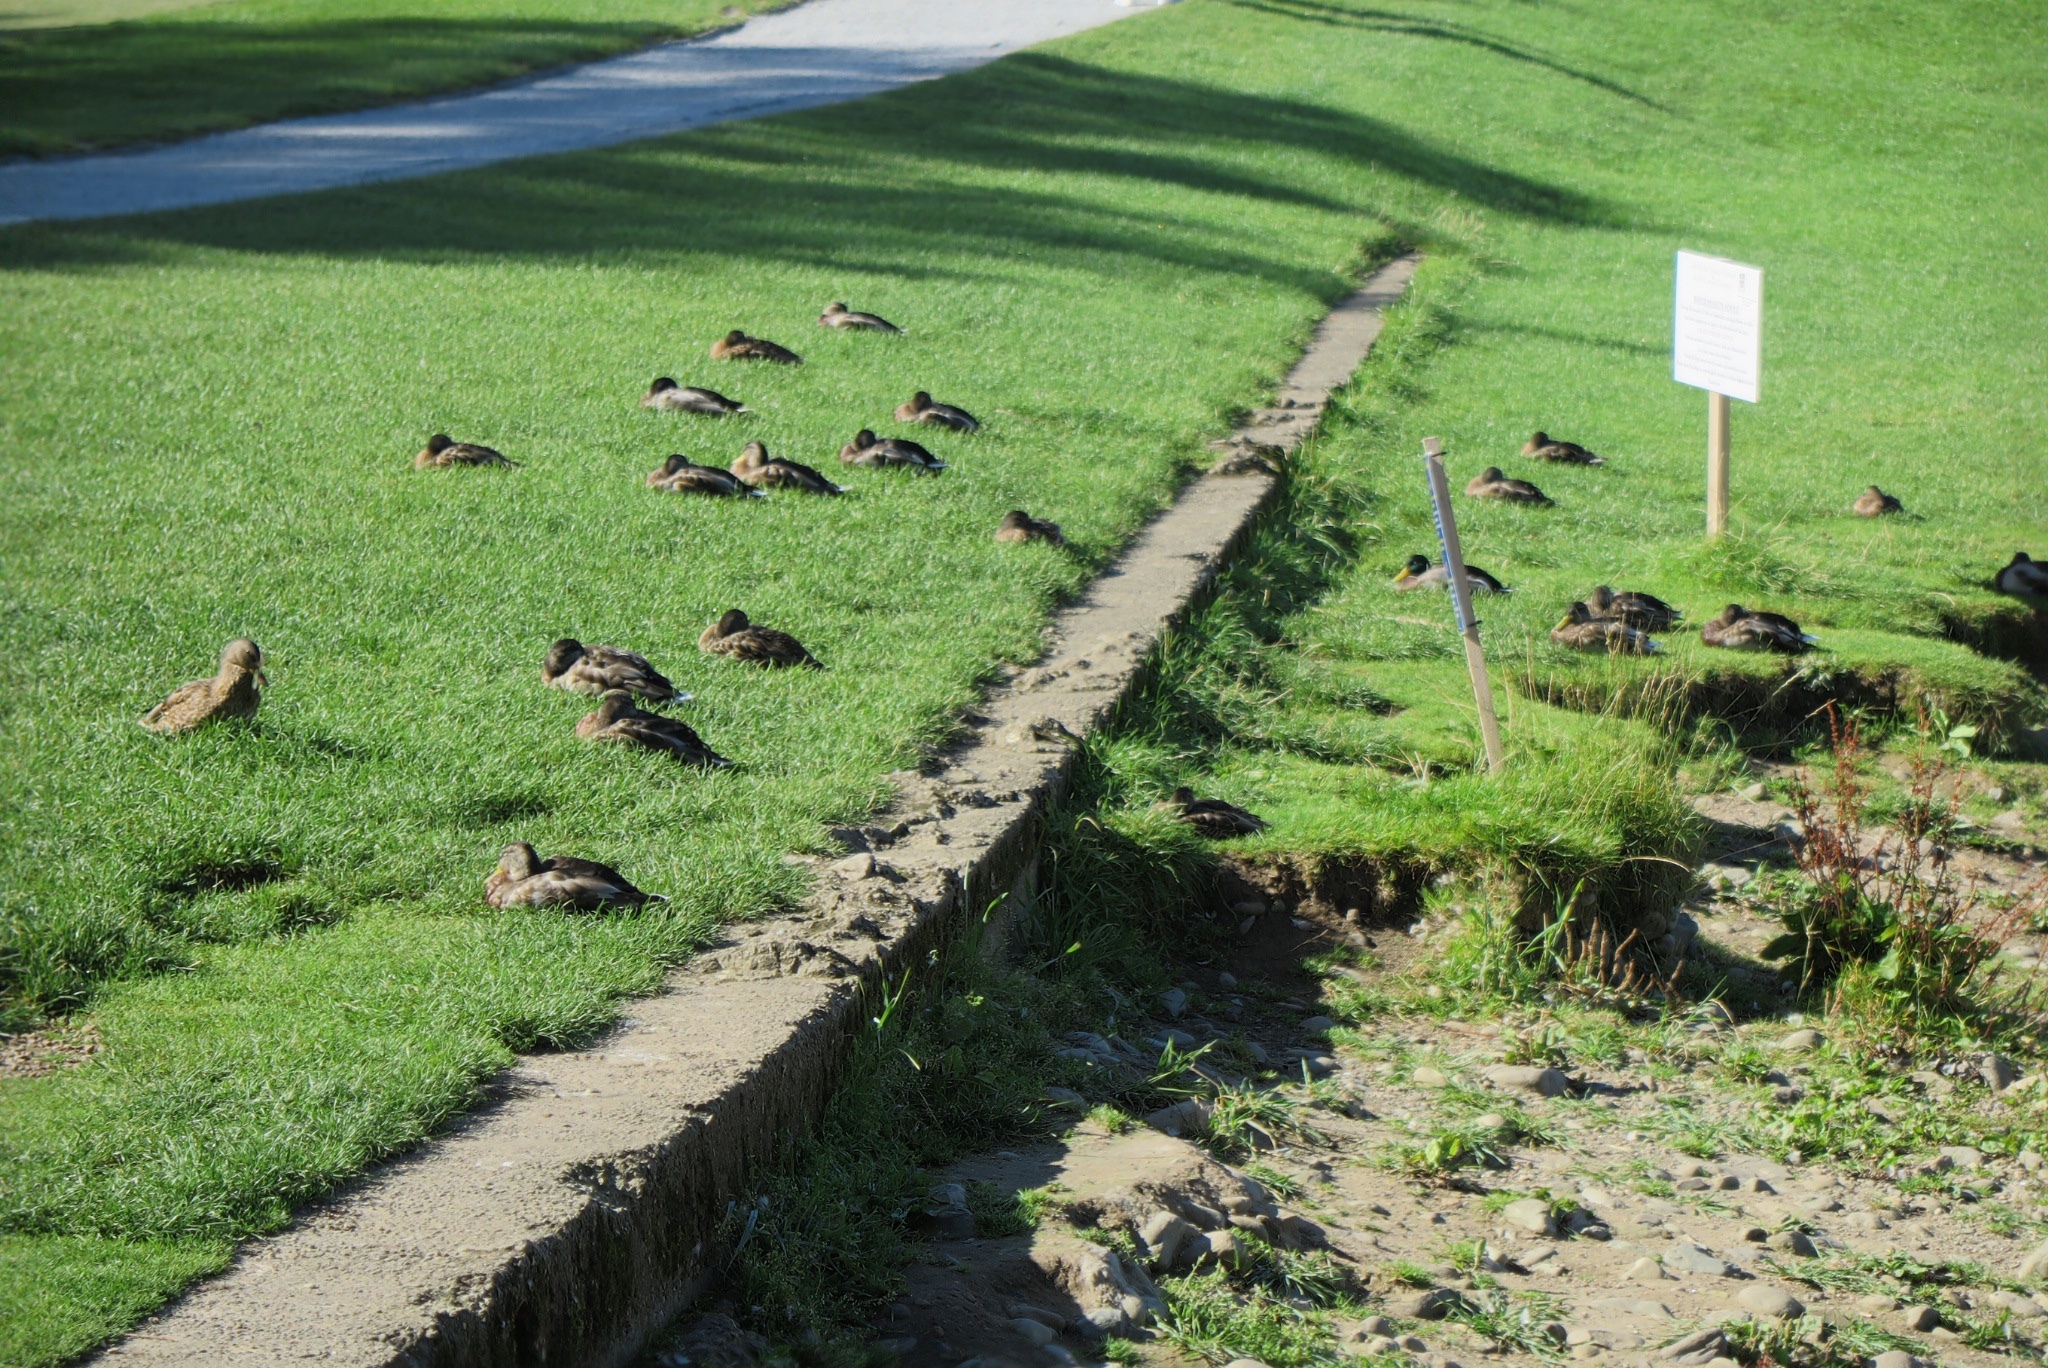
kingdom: Animalia
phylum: Chordata
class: Aves
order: Anseriformes
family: Anatidae
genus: Anas
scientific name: Anas platyrhynchos
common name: Mallard
